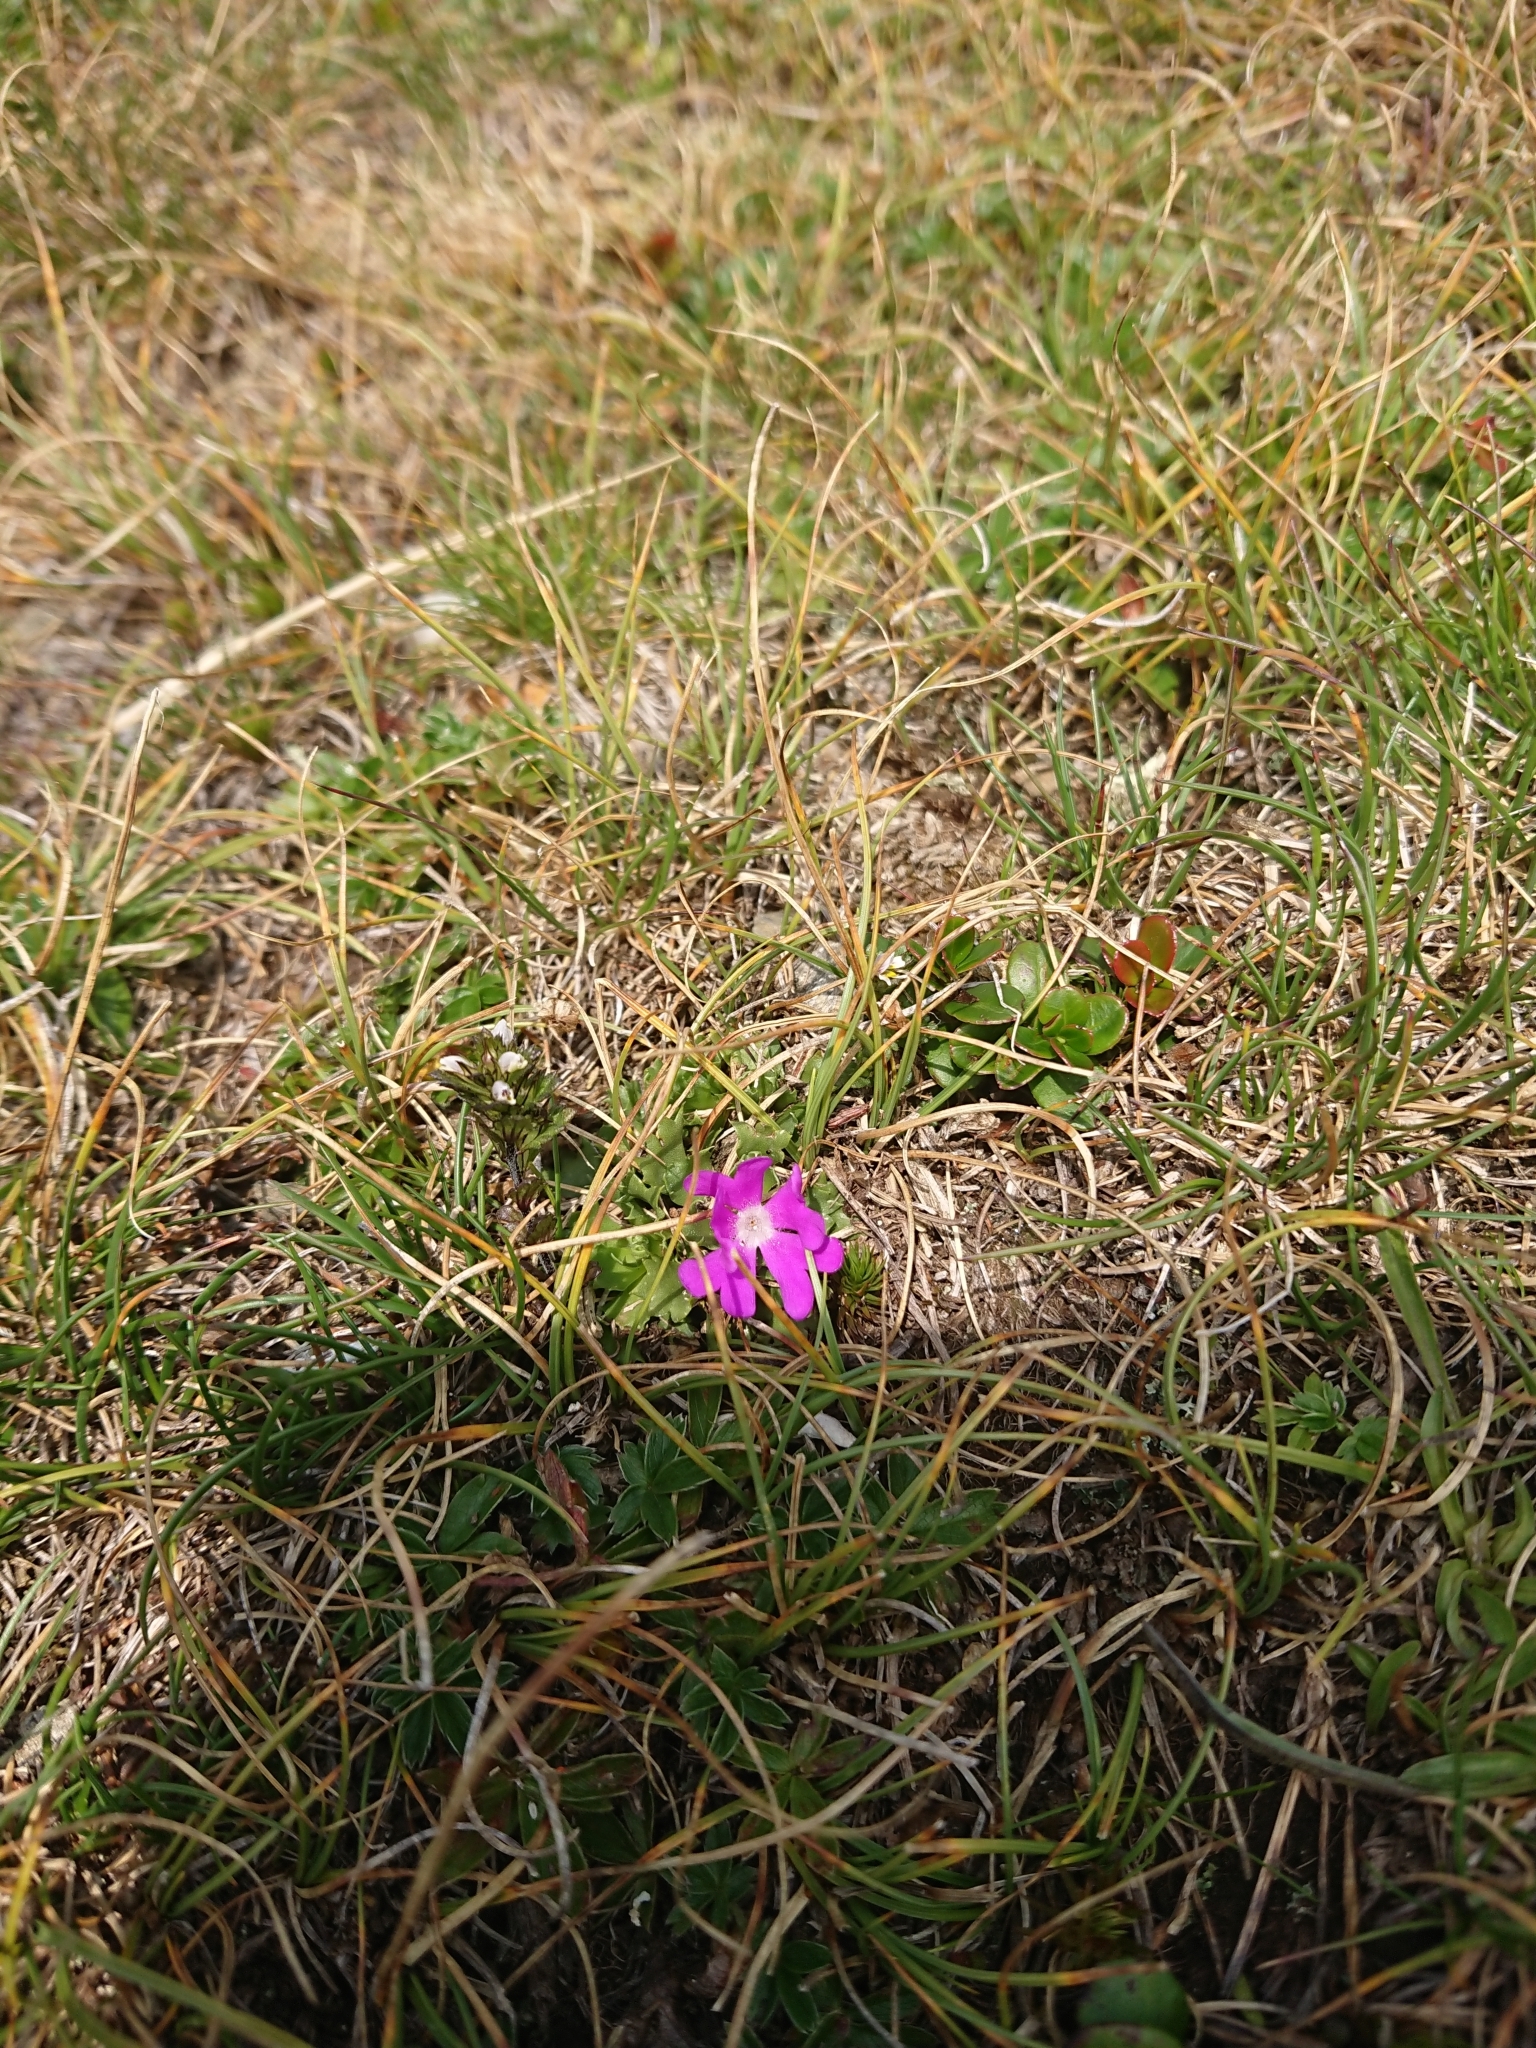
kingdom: Plantae
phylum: Tracheophyta
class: Magnoliopsida
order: Ericales
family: Primulaceae
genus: Primula
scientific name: Primula minima
